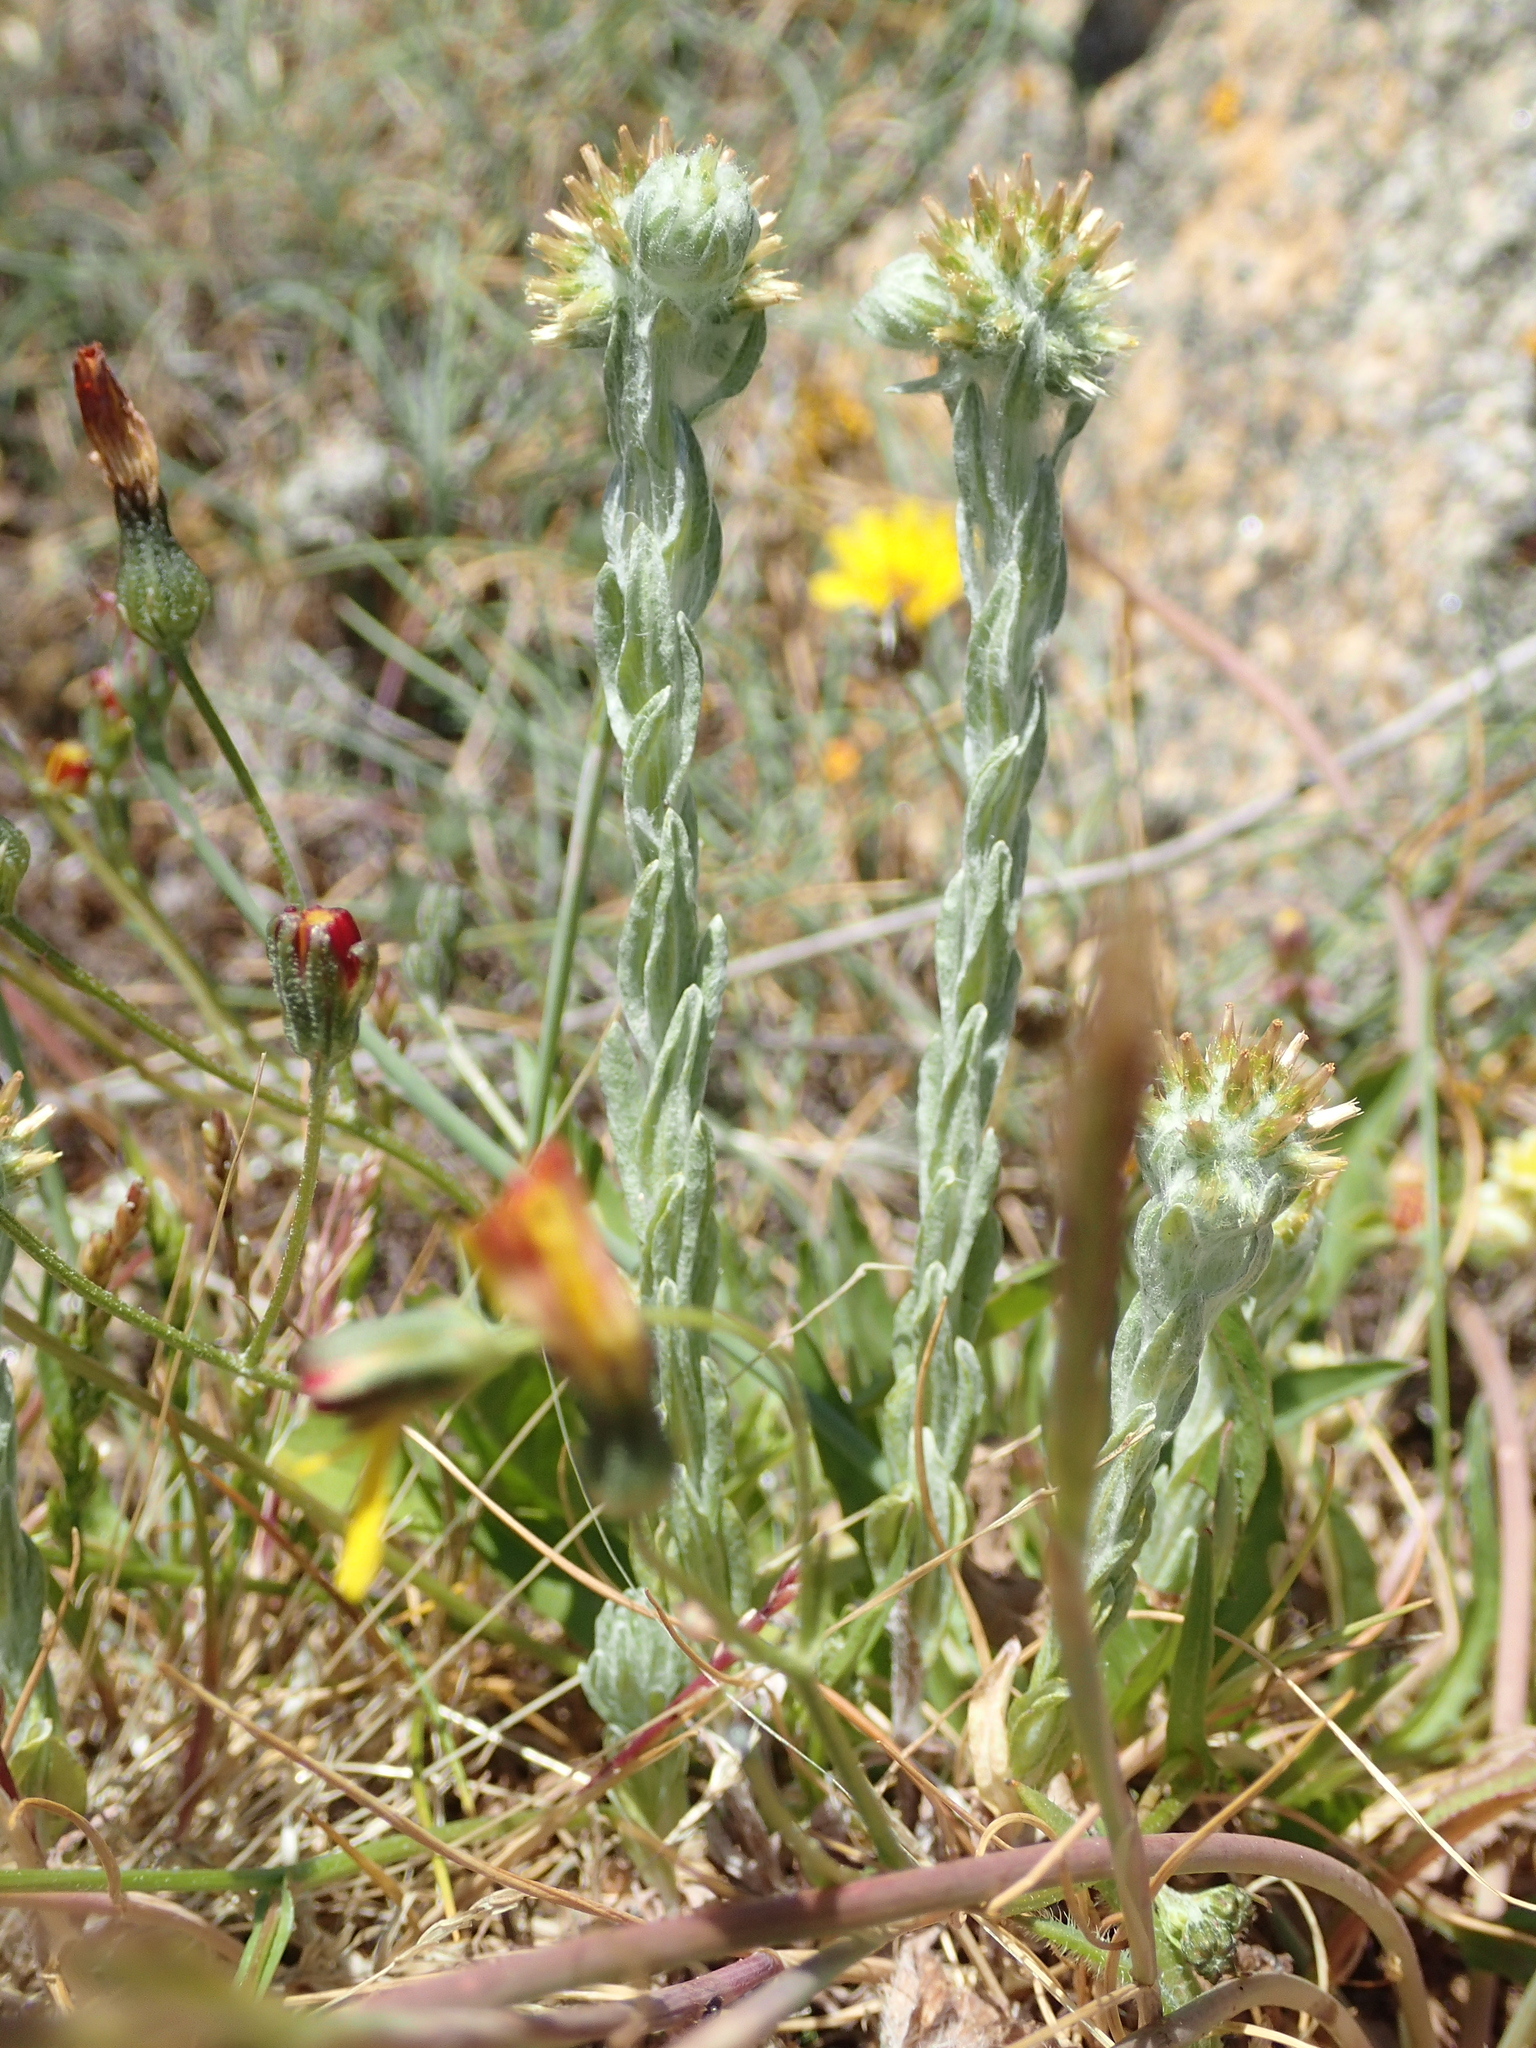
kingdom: Plantae
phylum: Tracheophyta
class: Magnoliopsida
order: Asterales
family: Asteraceae
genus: Logfia
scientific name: Logfia minima
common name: Little cottonrose
